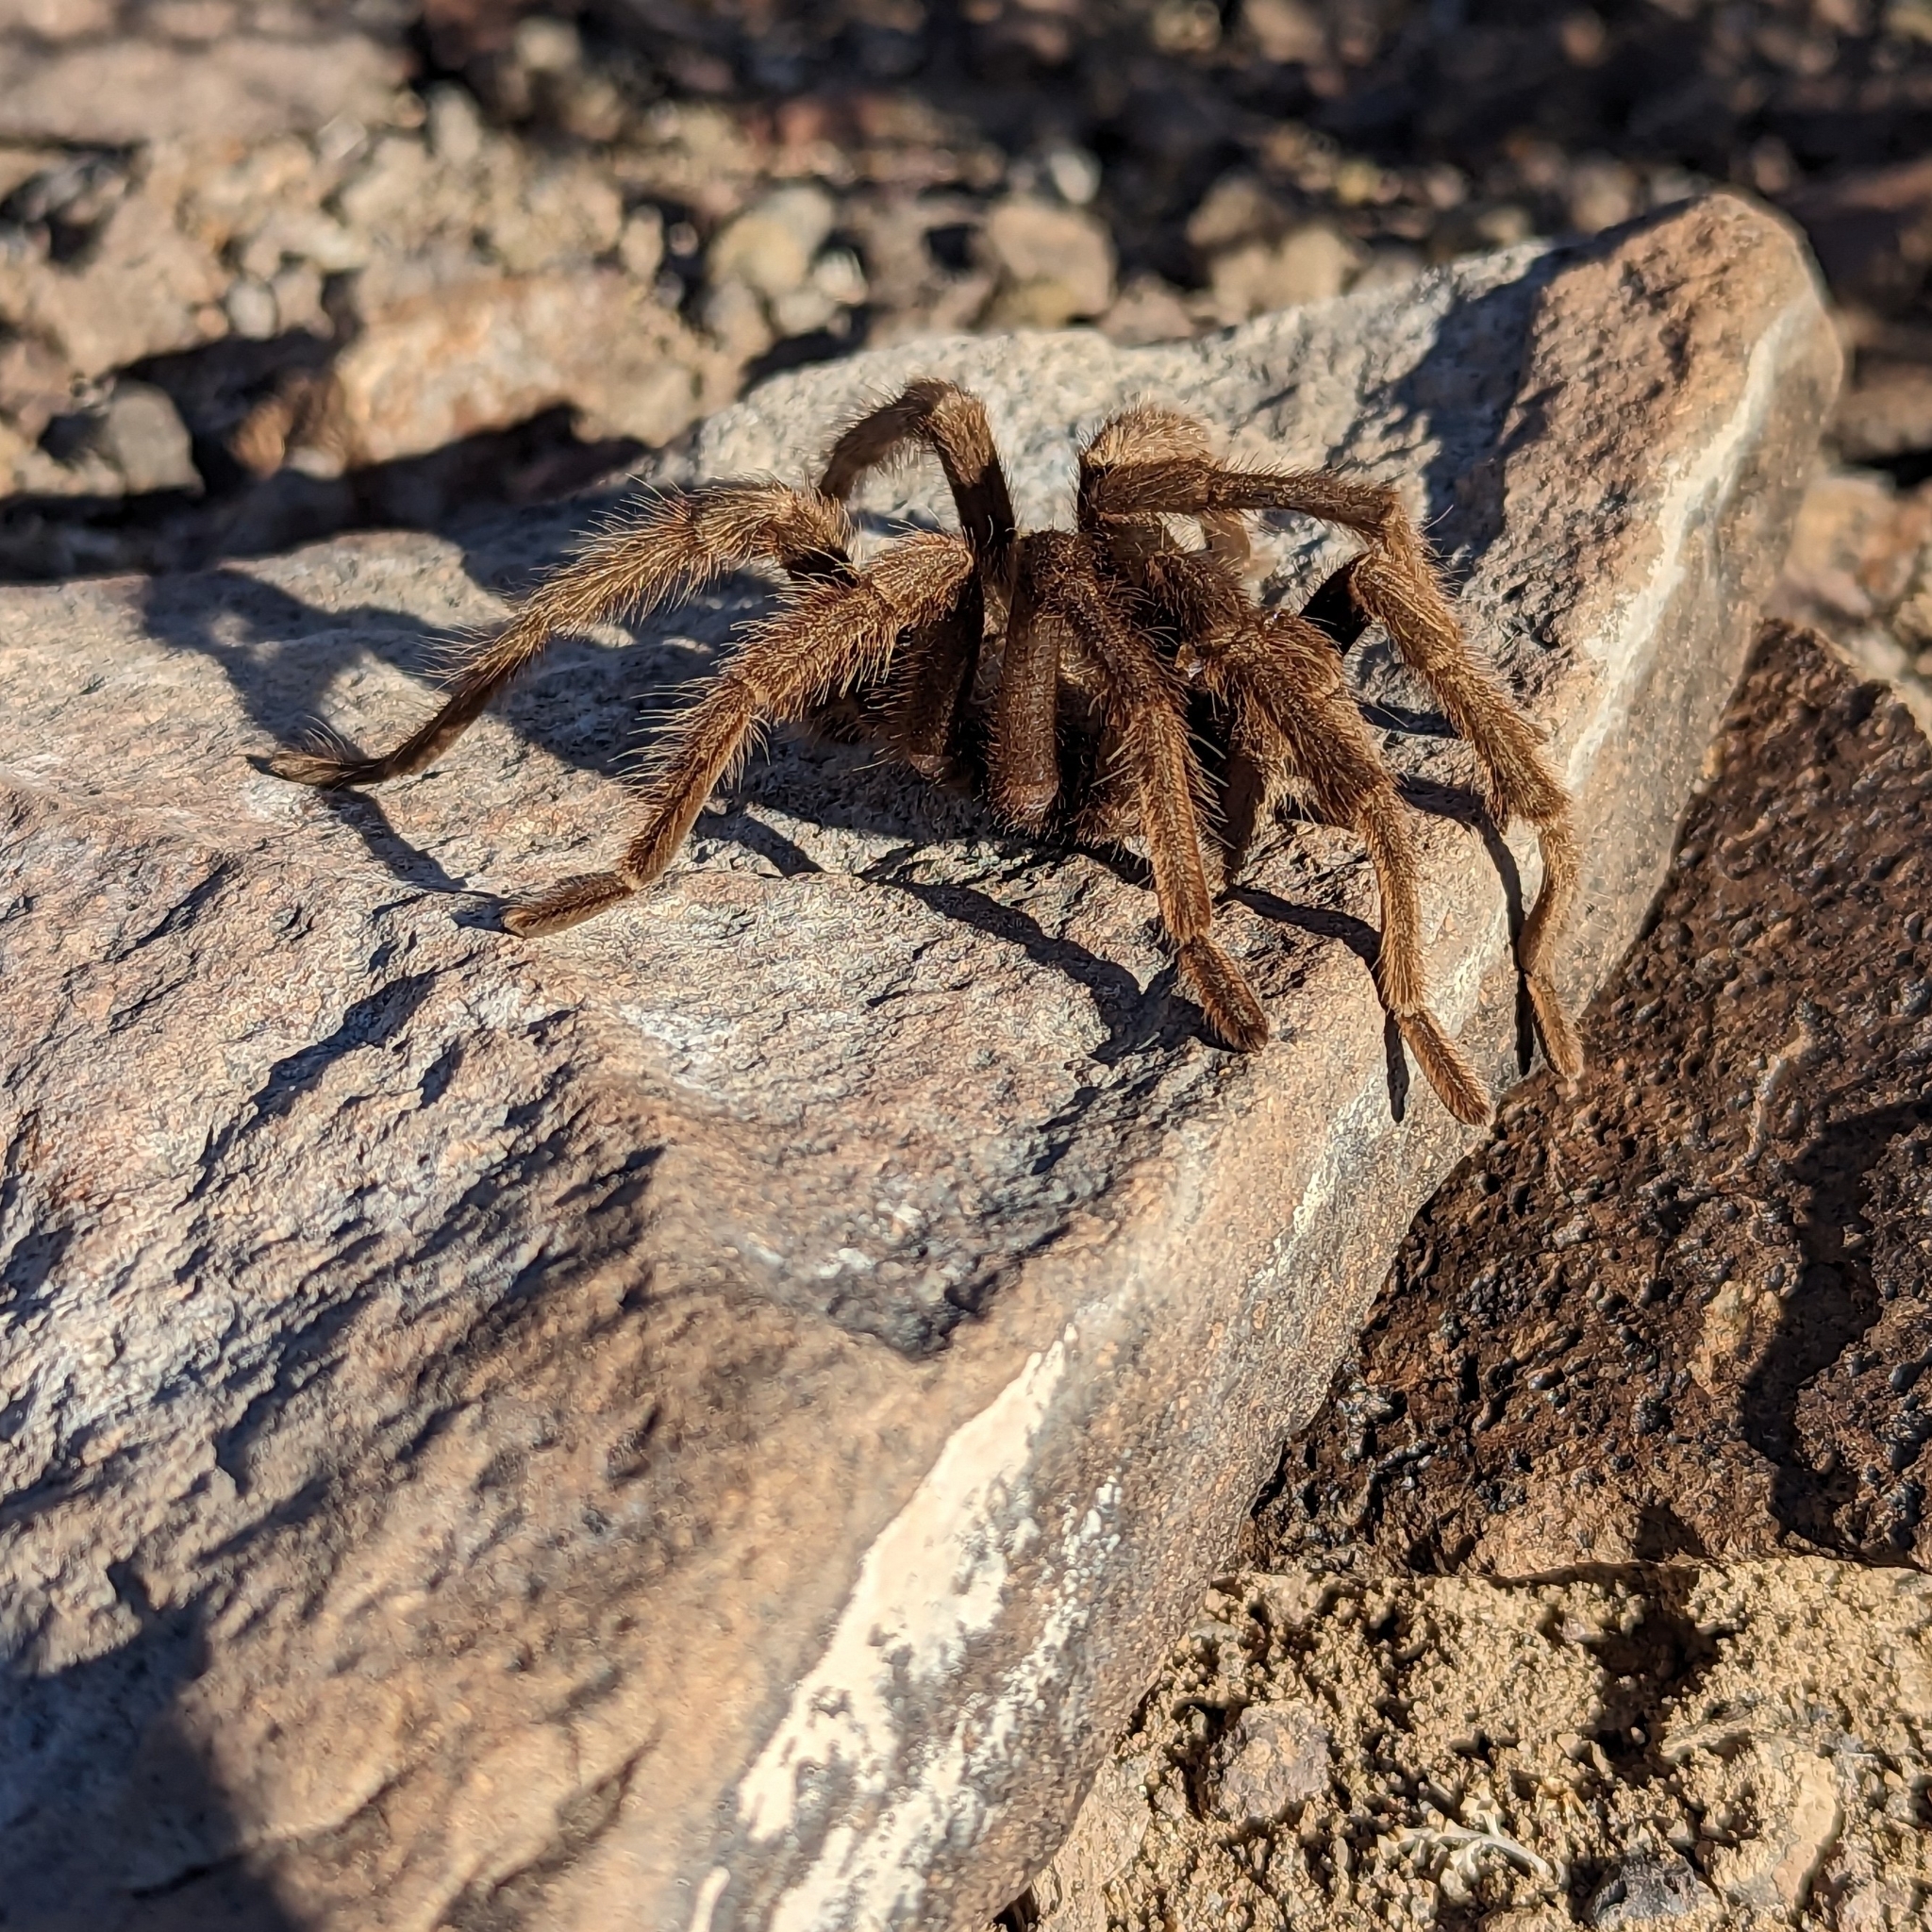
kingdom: Animalia
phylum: Arthropoda
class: Arachnida
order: Araneae
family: Theraphosidae
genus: Aphonopelma
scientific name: Aphonopelma iodius
